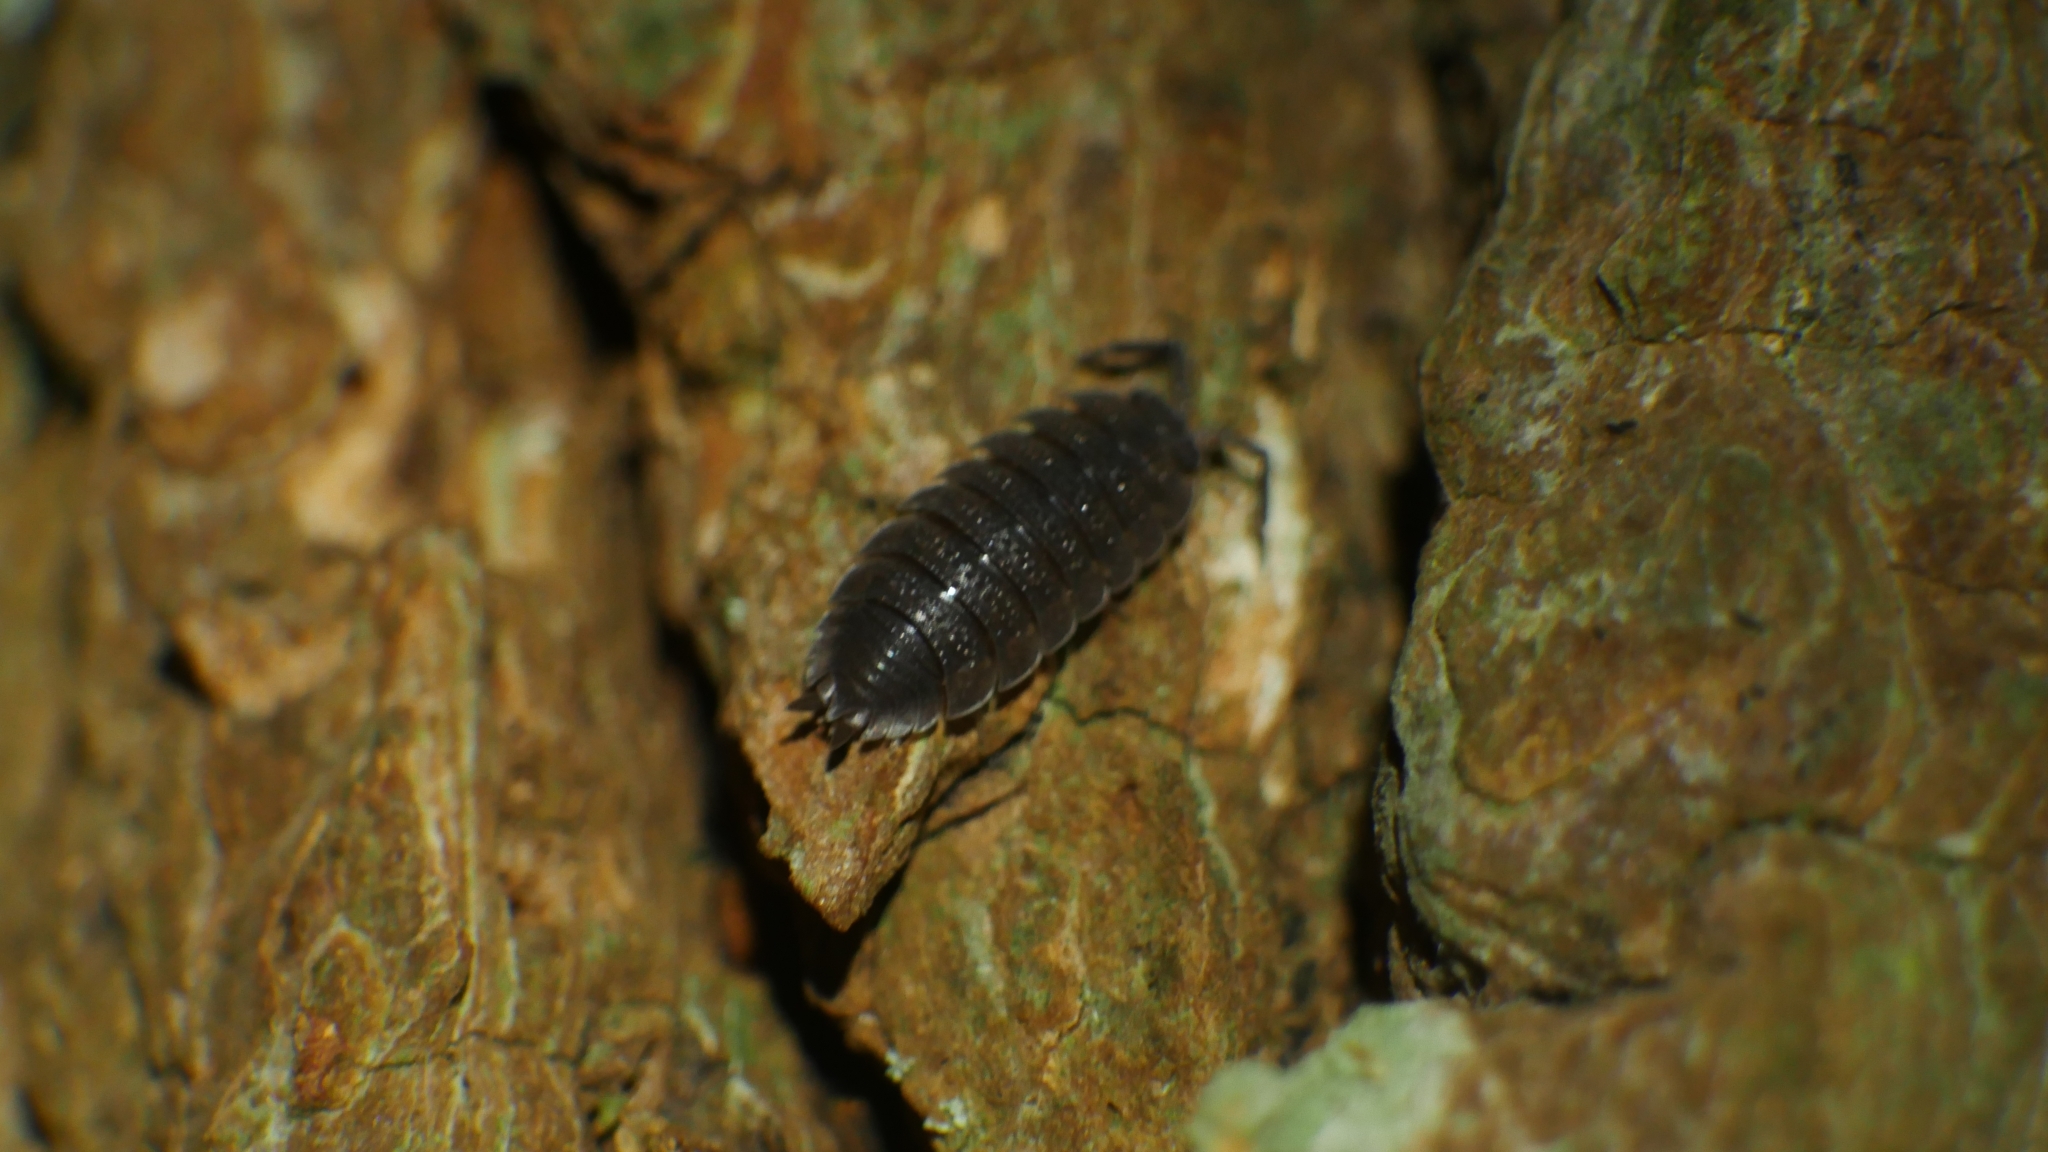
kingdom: Animalia
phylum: Arthropoda
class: Malacostraca
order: Isopoda
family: Porcellionidae
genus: Porcellio
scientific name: Porcellio scaber
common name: Common rough woodlouse
